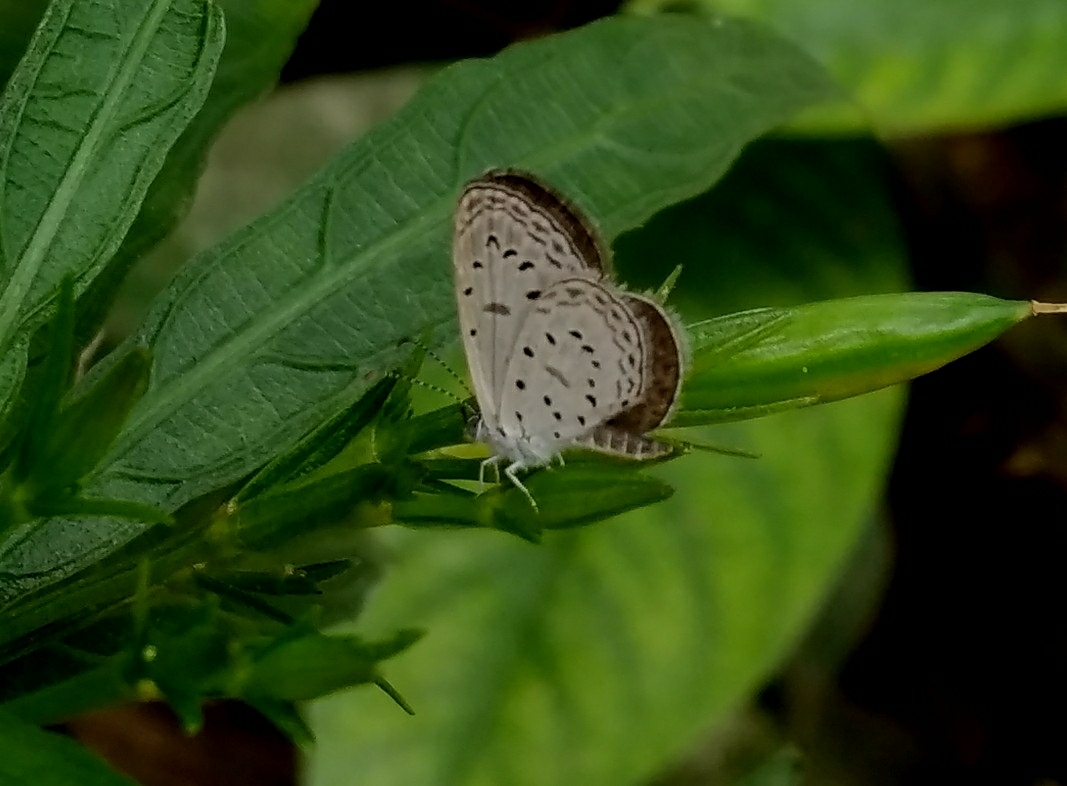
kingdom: Animalia
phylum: Arthropoda
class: Insecta
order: Lepidoptera
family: Lycaenidae
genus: Zizula
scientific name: Zizula hylax
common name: Gaika blue
